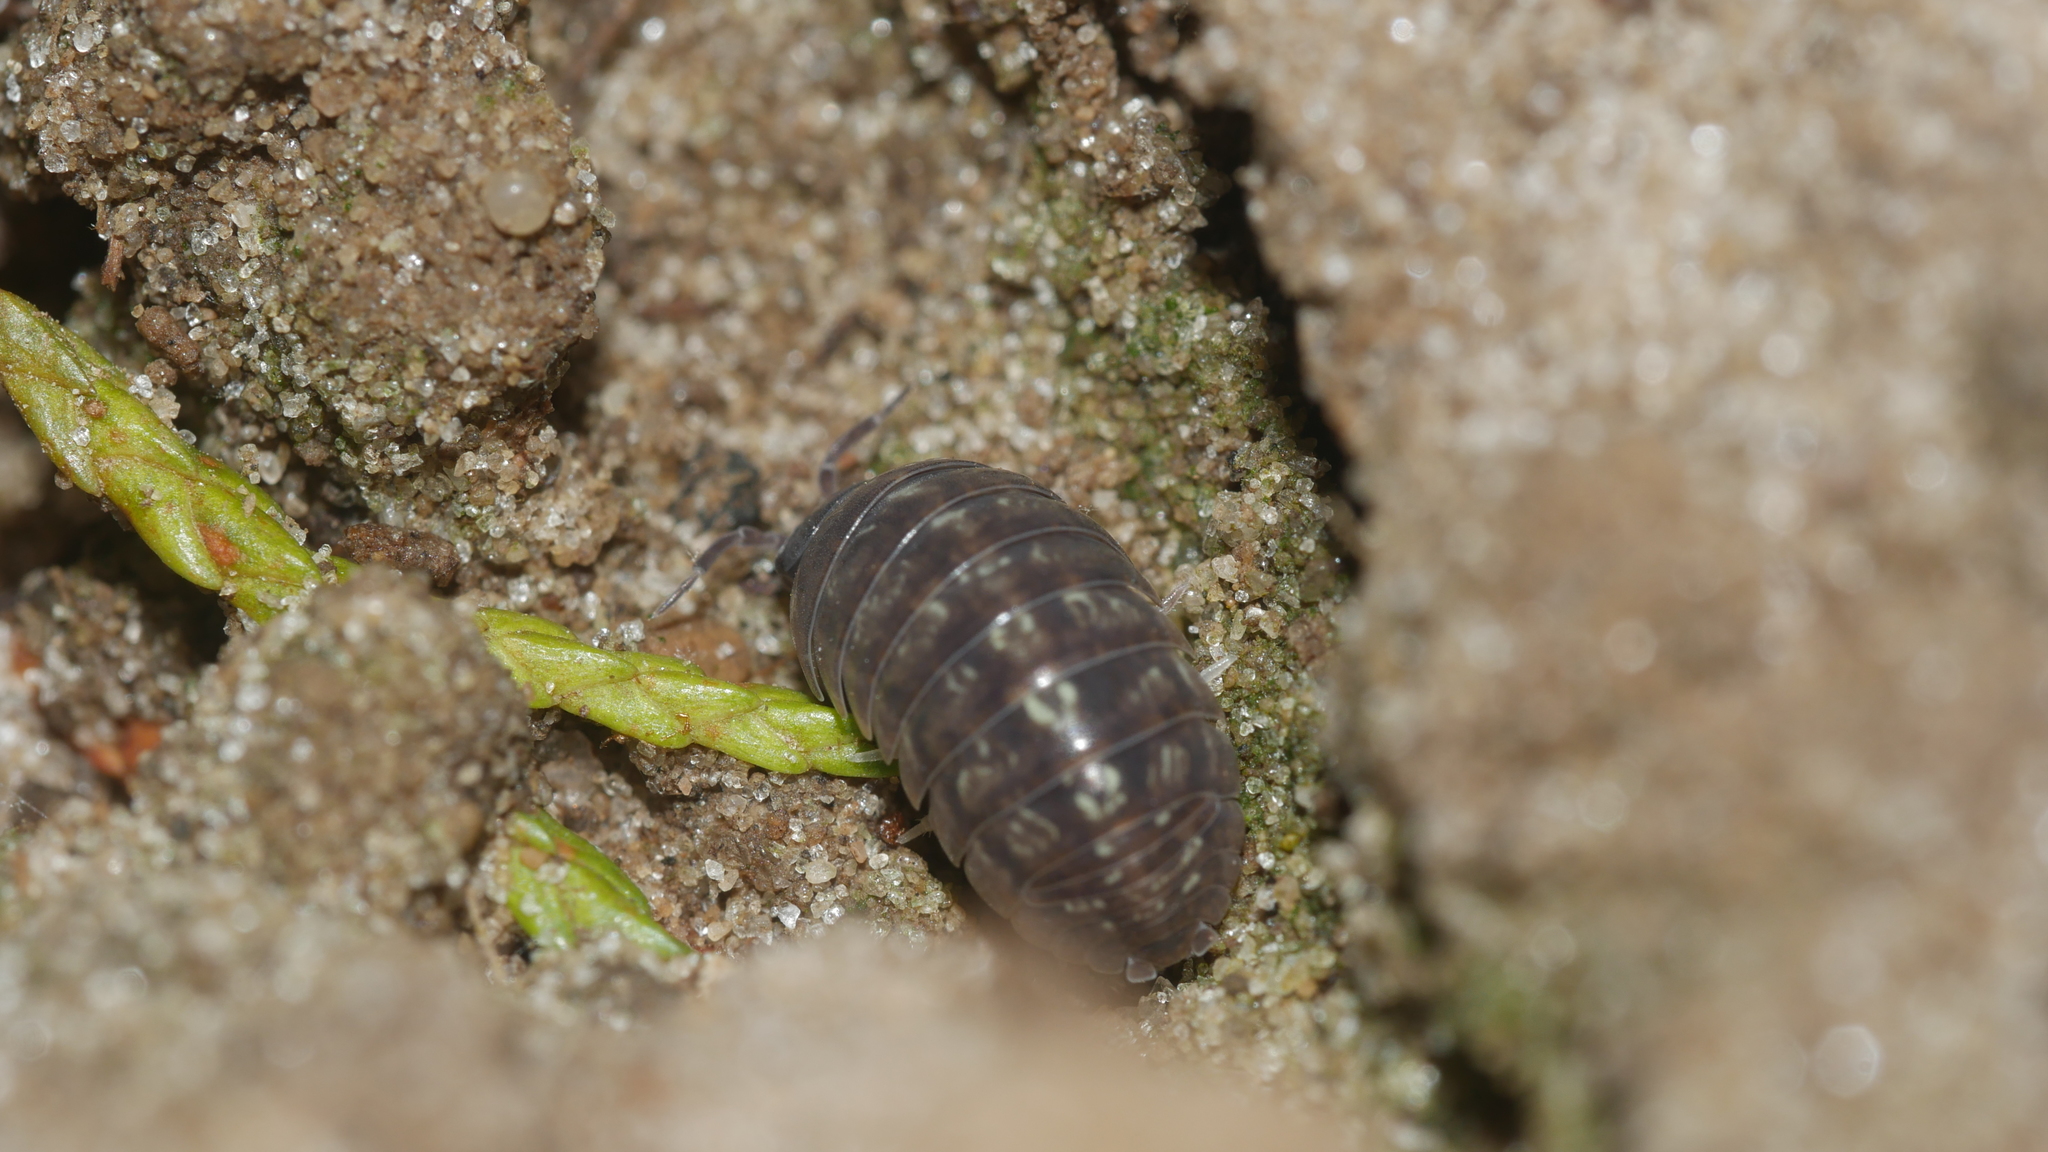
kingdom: Animalia
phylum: Arthropoda
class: Malacostraca
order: Isopoda
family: Armadillidiidae
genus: Armadillidium
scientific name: Armadillidium vulgare
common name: Common pill woodlouse
